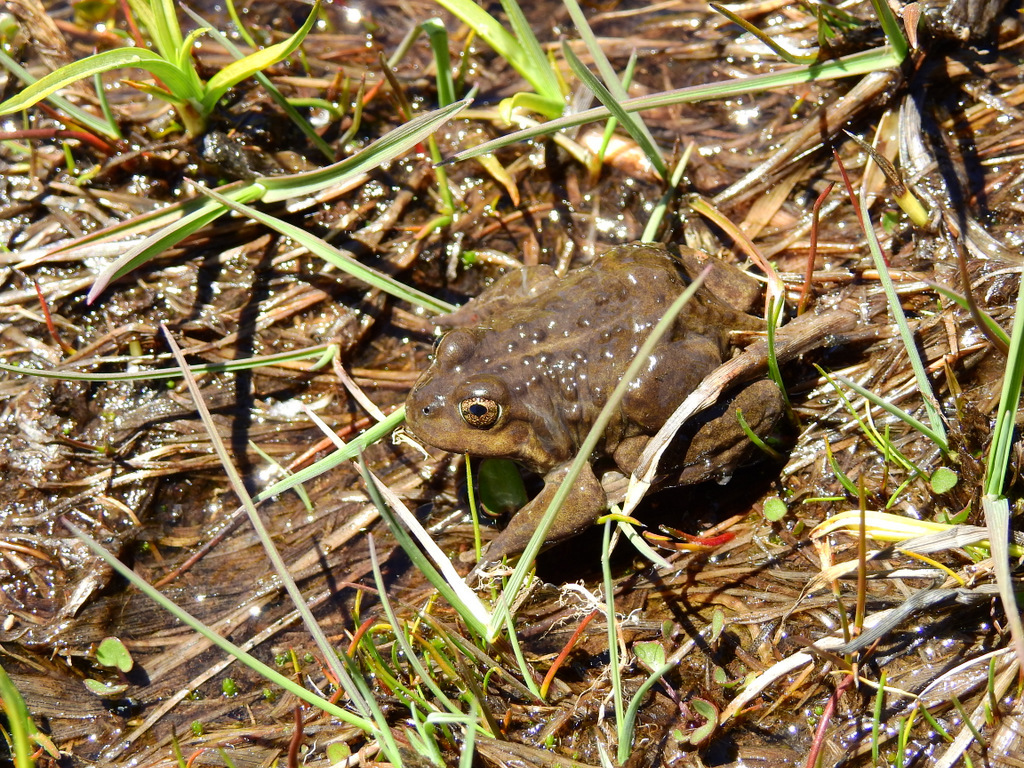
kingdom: Animalia
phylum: Chordata
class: Amphibia
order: Anura
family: Leptodactylidae
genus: Pleurodema
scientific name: Pleurodema bufoninum
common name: Large four-eyed frog
